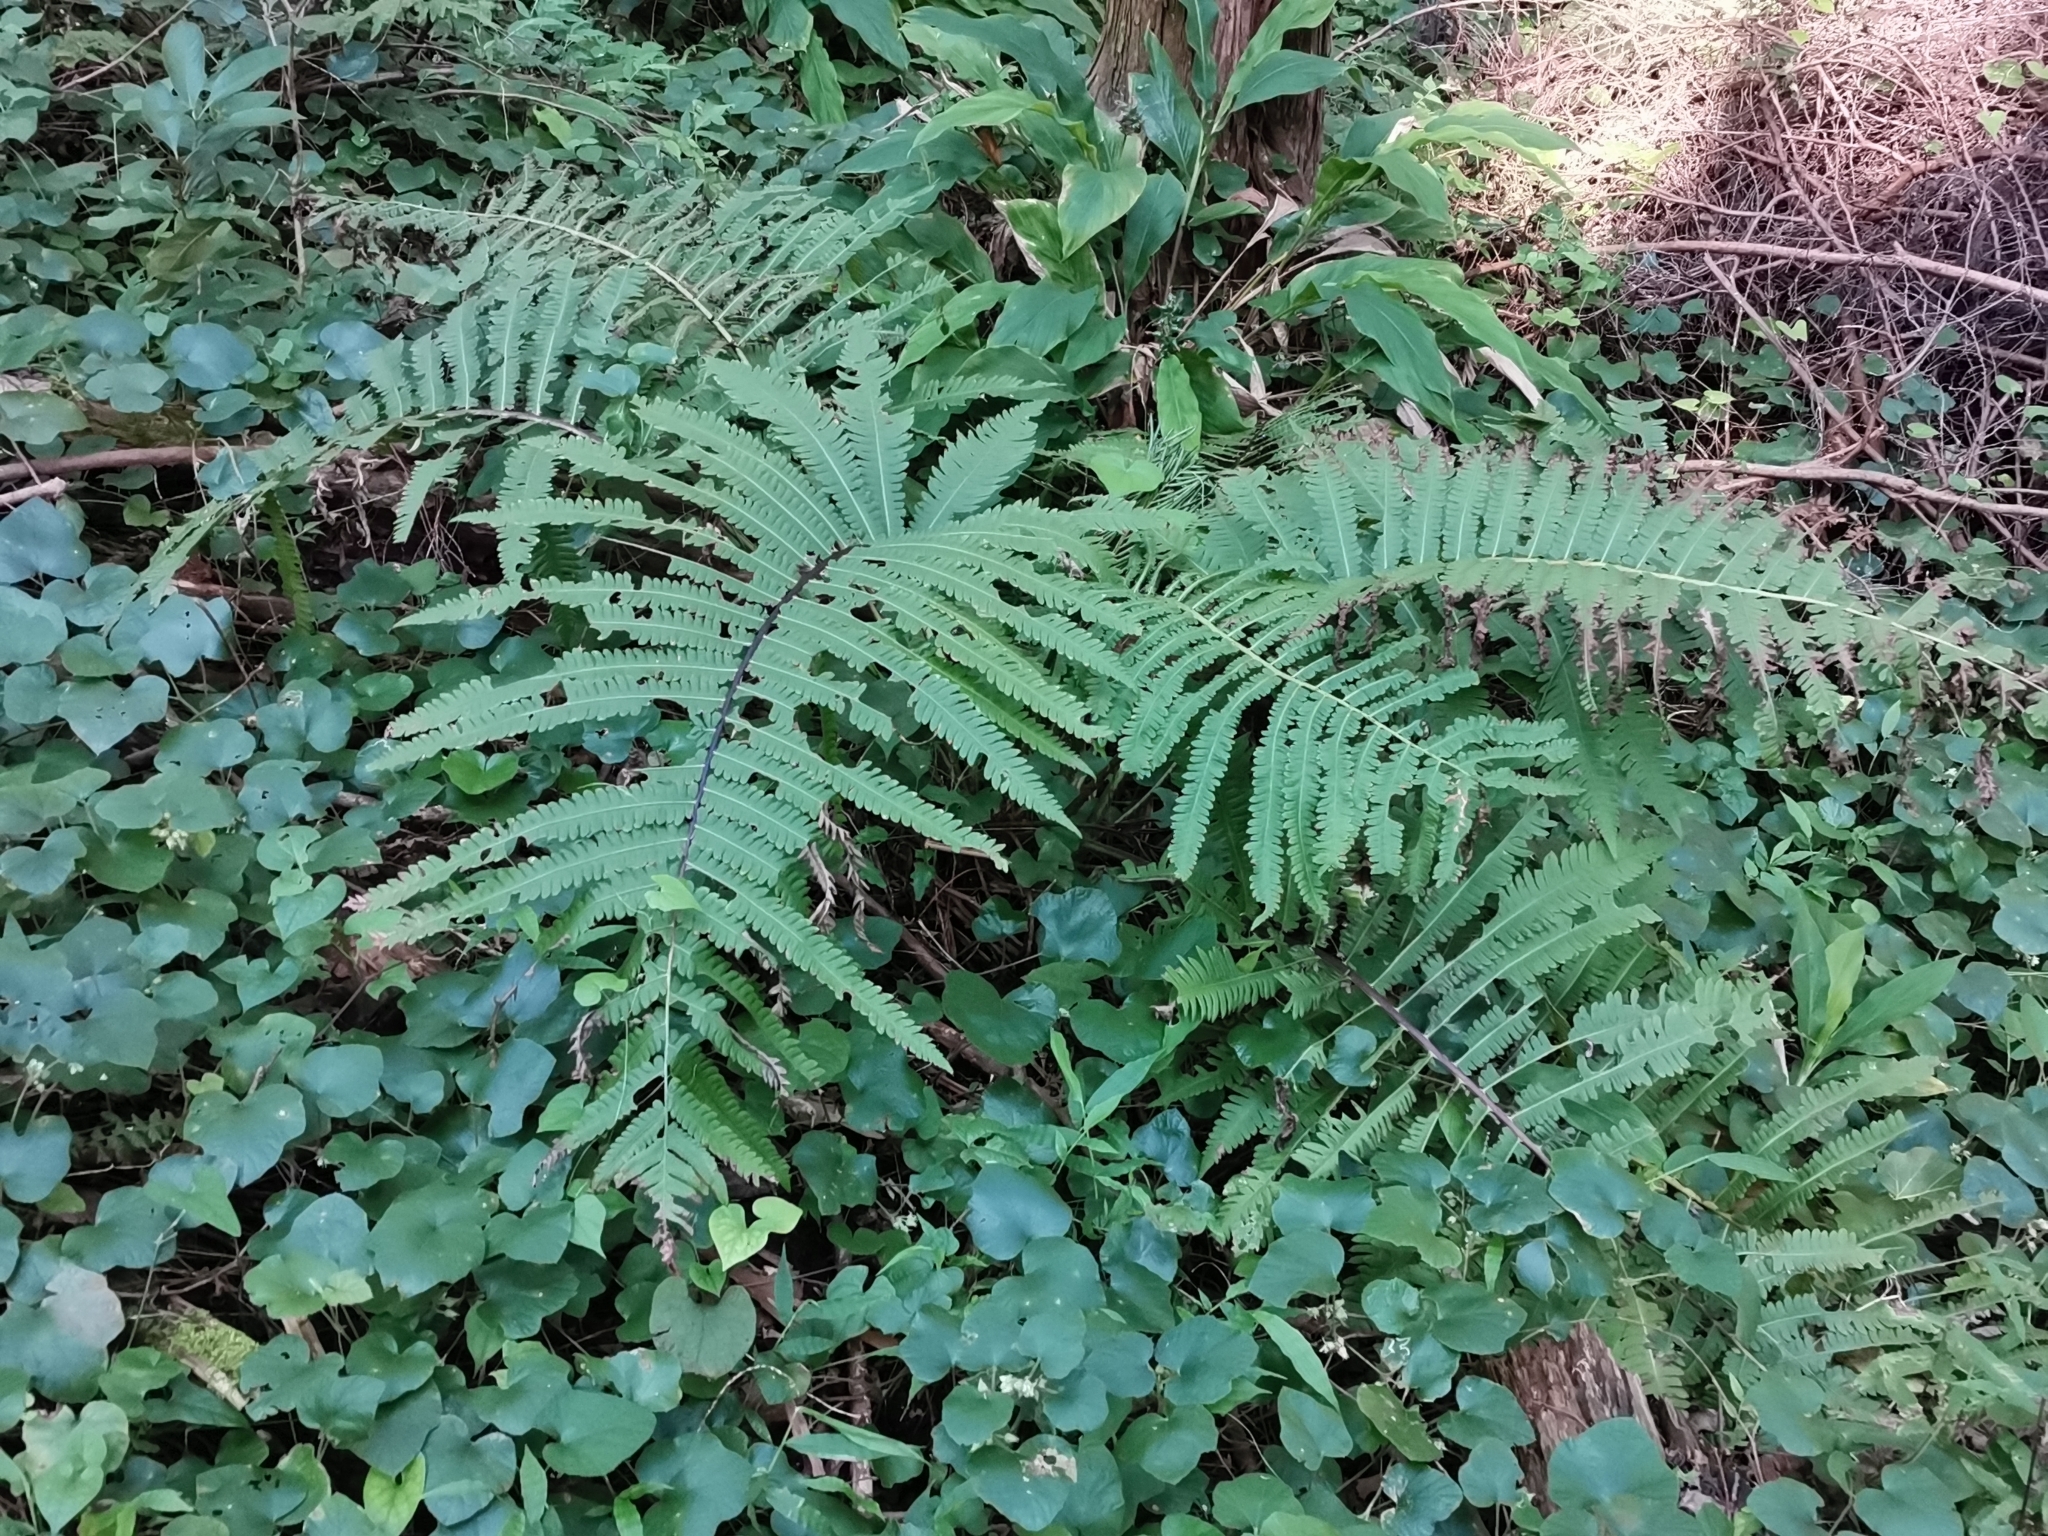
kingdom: Plantae
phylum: Tracheophyta
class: Polypodiopsida
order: Polypodiales
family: Onocleaceae
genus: Pentarhizidium
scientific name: Pentarhizidium orientale
